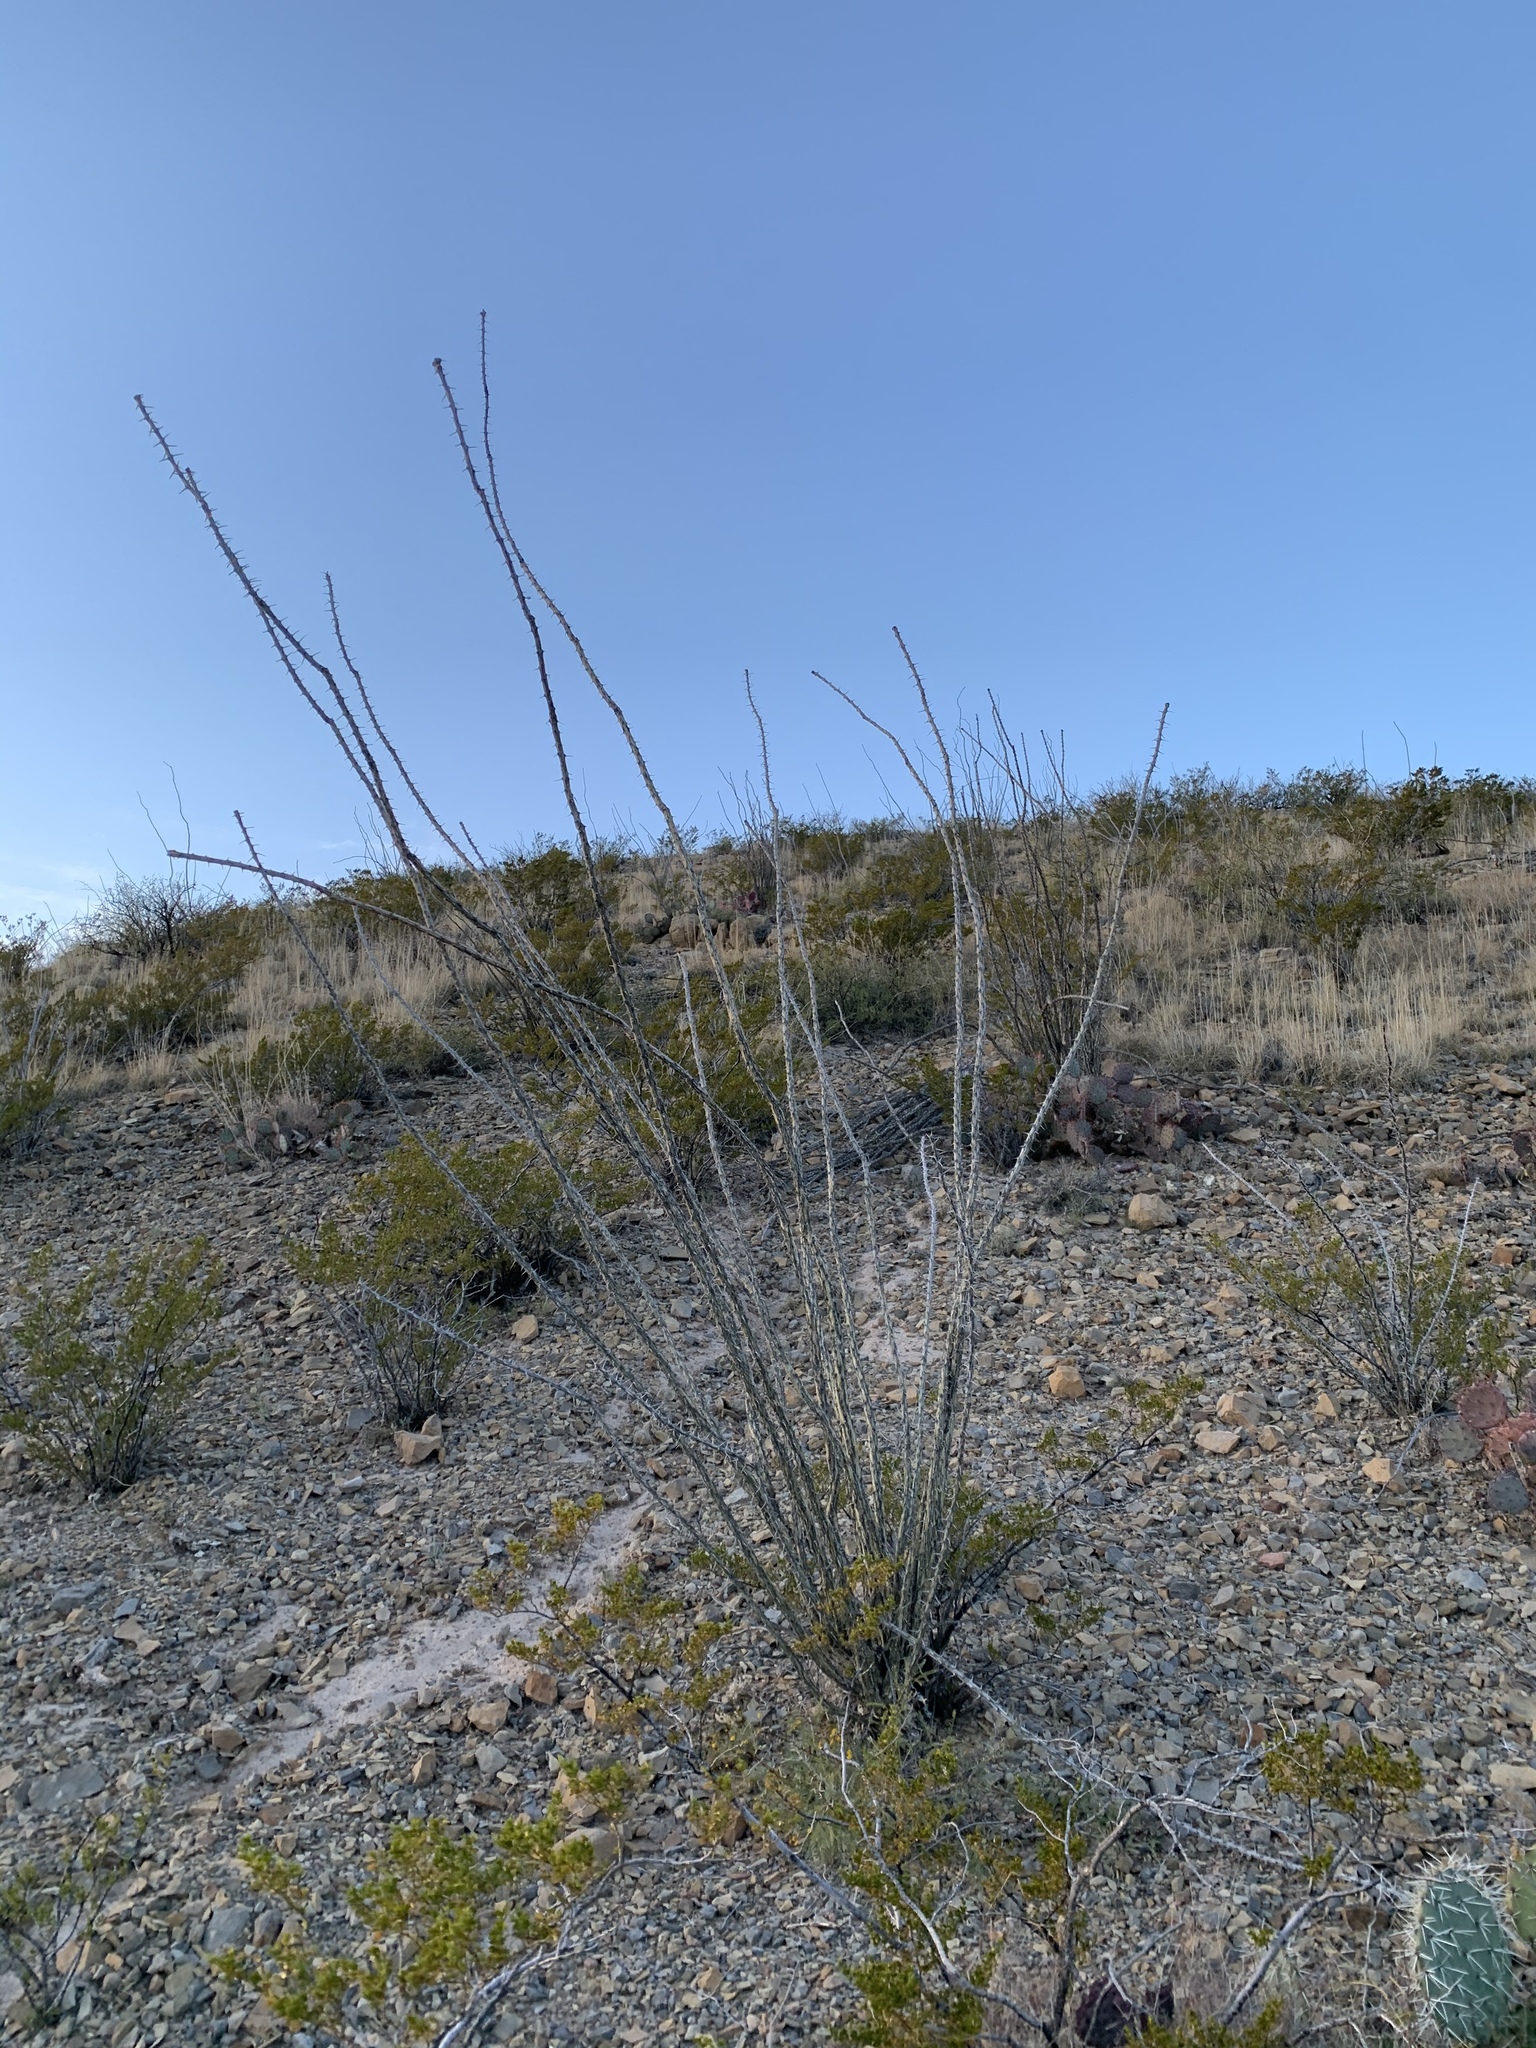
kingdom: Plantae
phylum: Tracheophyta
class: Magnoliopsida
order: Ericales
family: Fouquieriaceae
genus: Fouquieria
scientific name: Fouquieria splendens
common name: Vine-cactus
